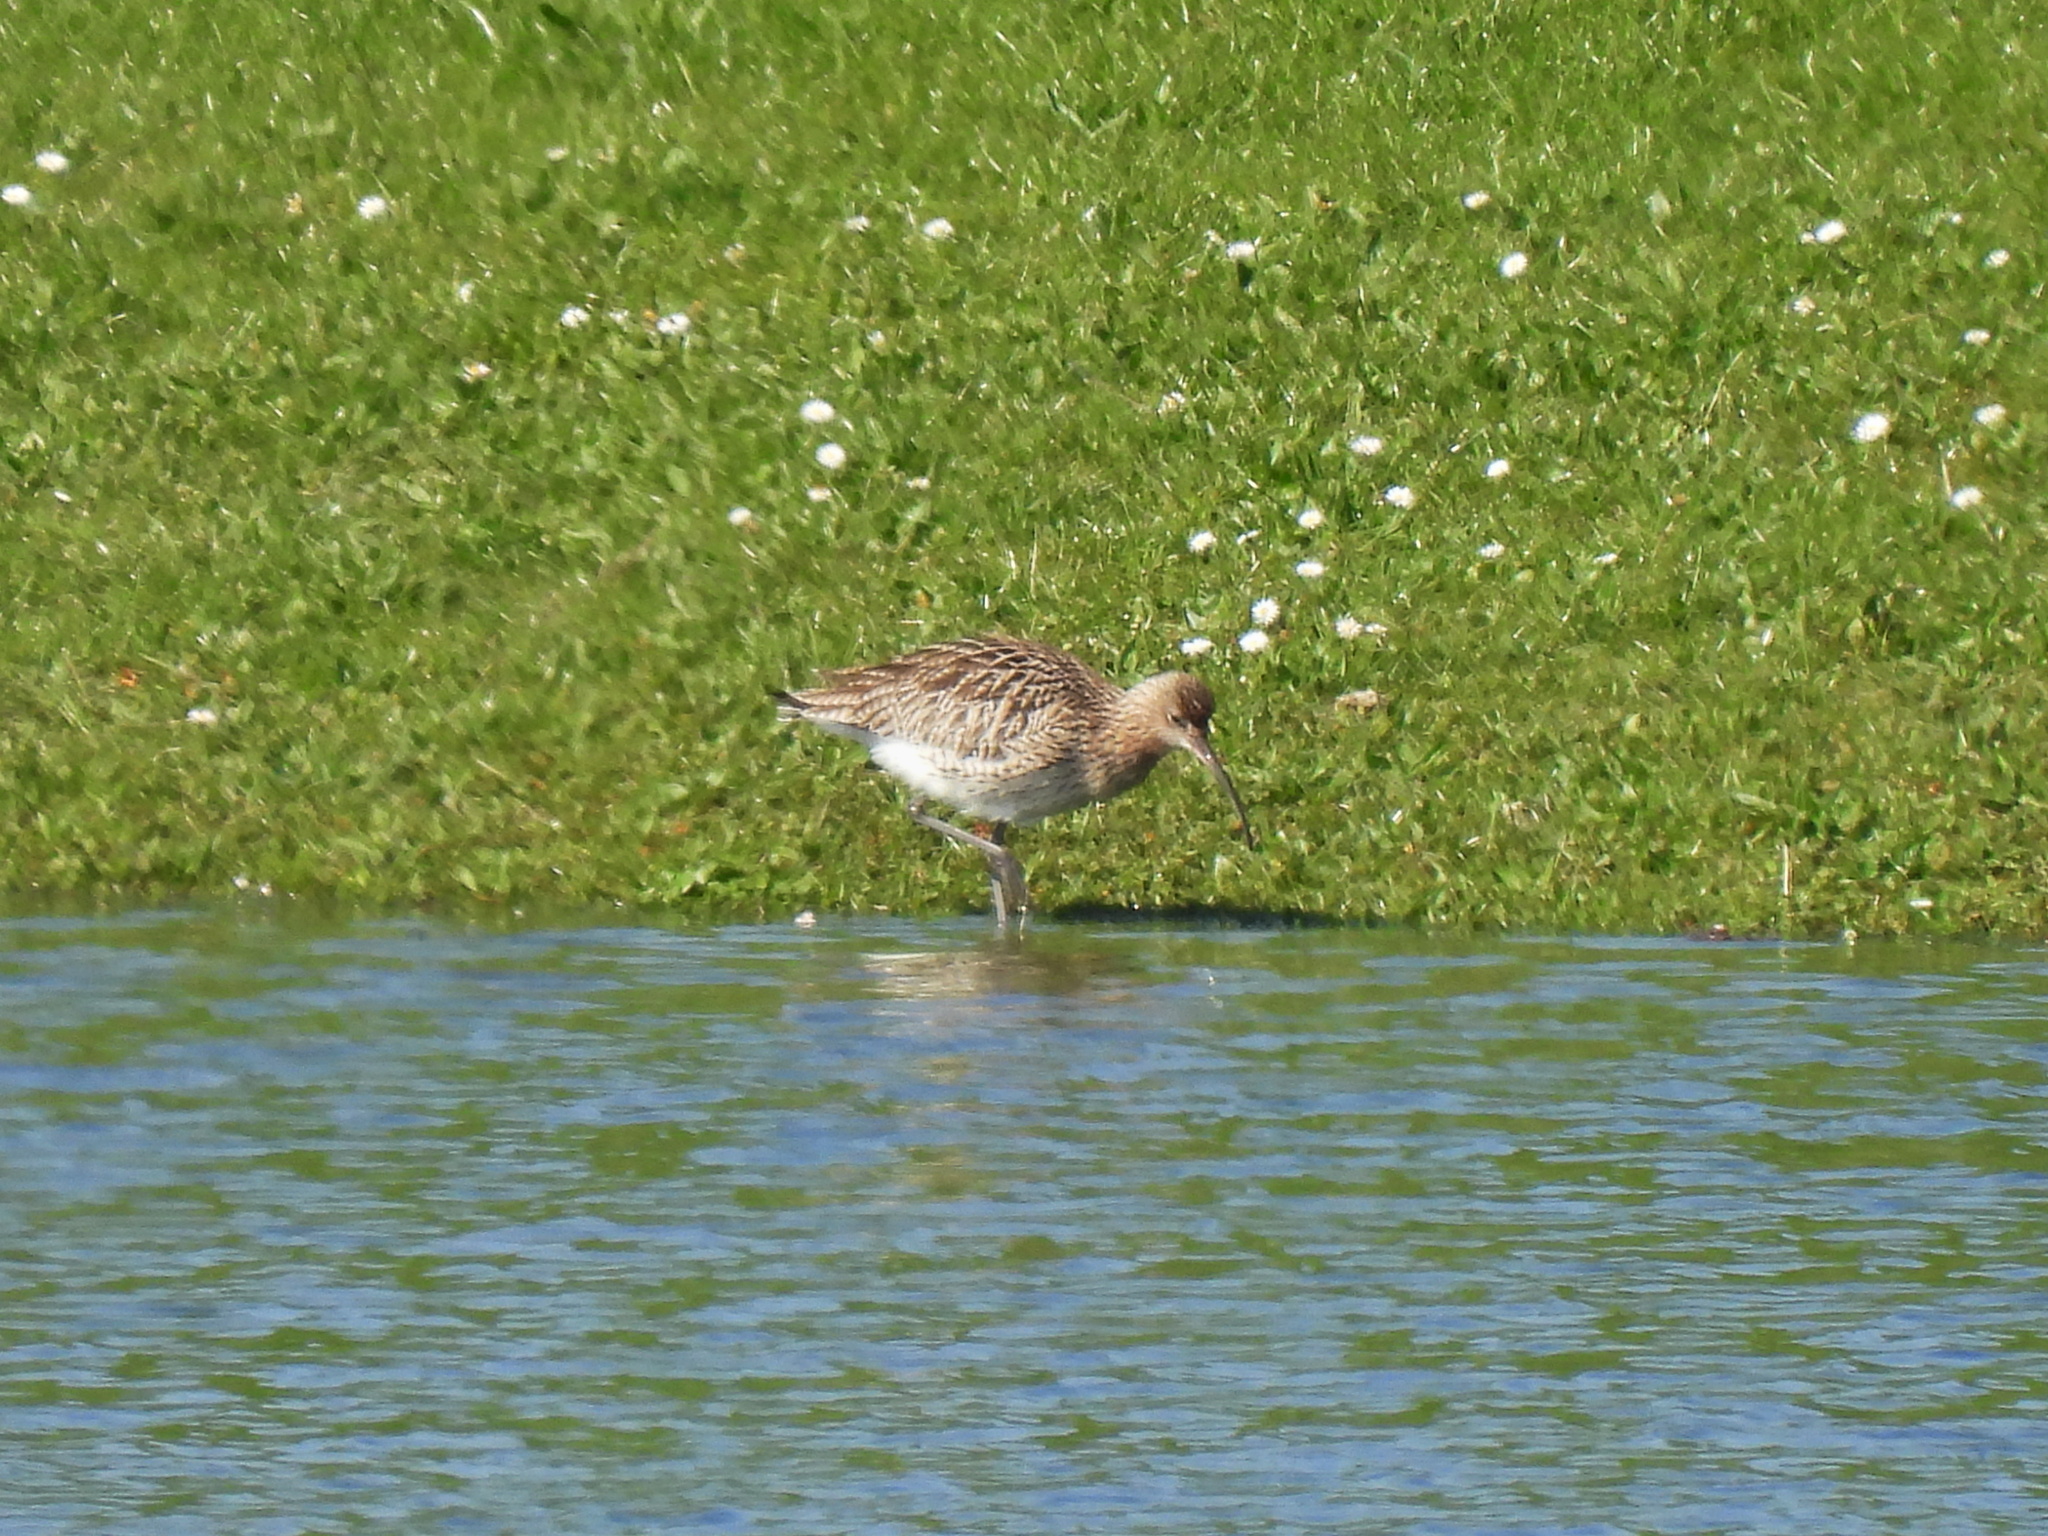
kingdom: Animalia
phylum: Chordata
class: Aves
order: Charadriiformes
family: Scolopacidae
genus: Numenius
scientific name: Numenius arquata
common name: Eurasian curlew
